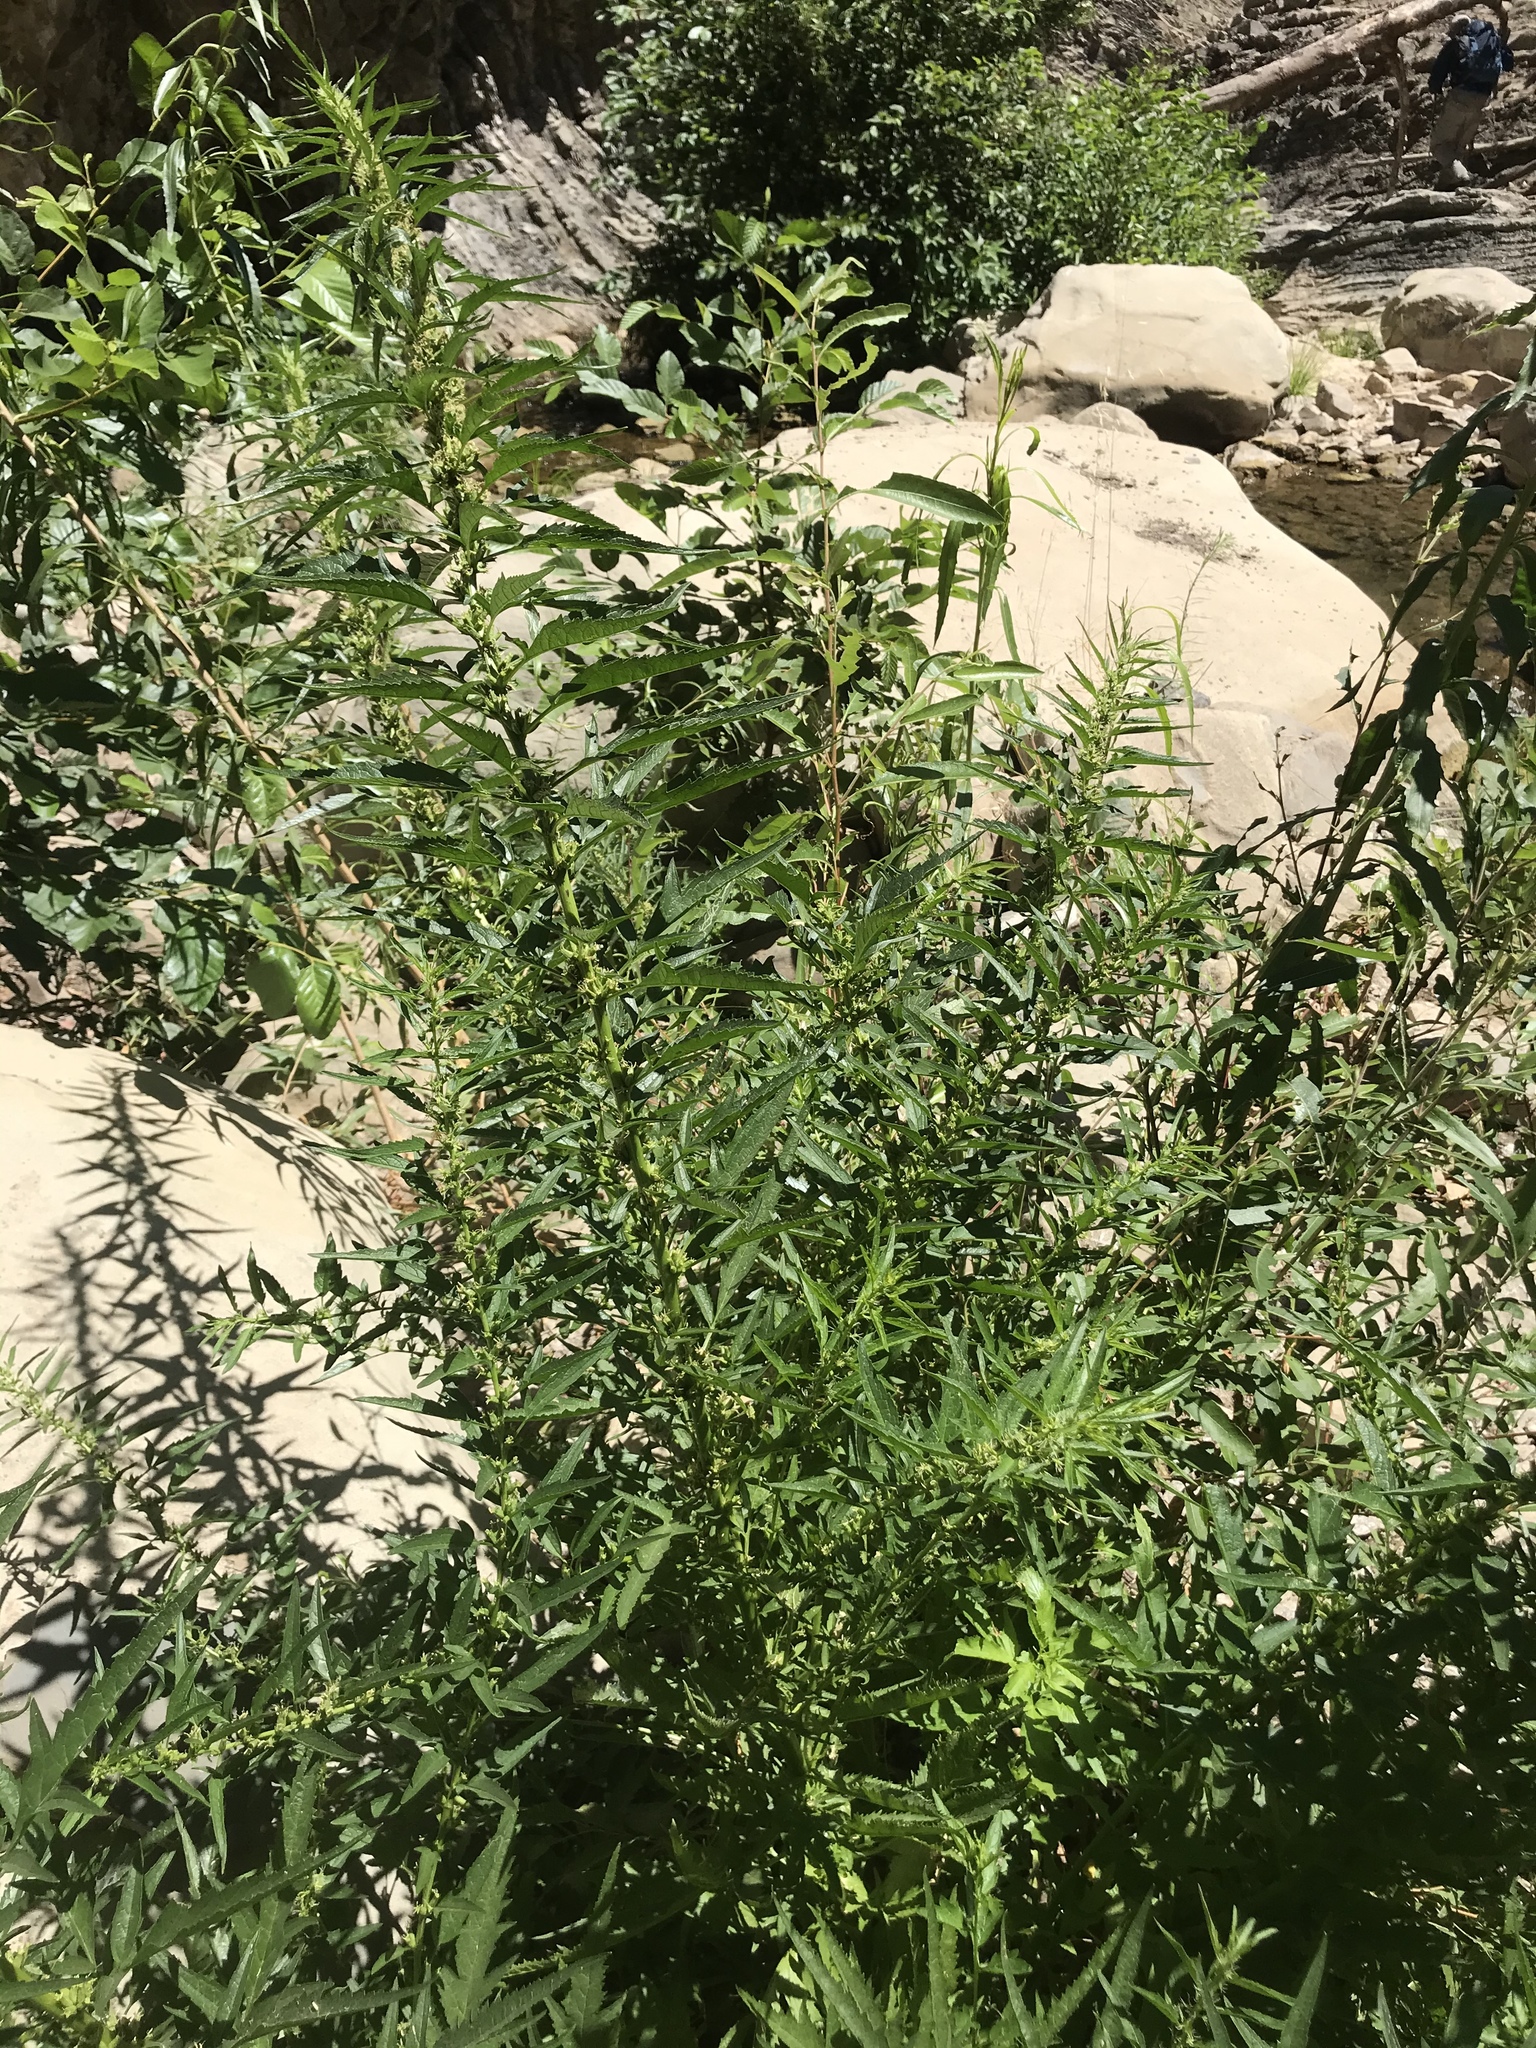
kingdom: Plantae
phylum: Tracheophyta
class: Magnoliopsida
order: Cucurbitales
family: Datiscaceae
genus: Datisca
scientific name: Datisca glomerata
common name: Durango-root
